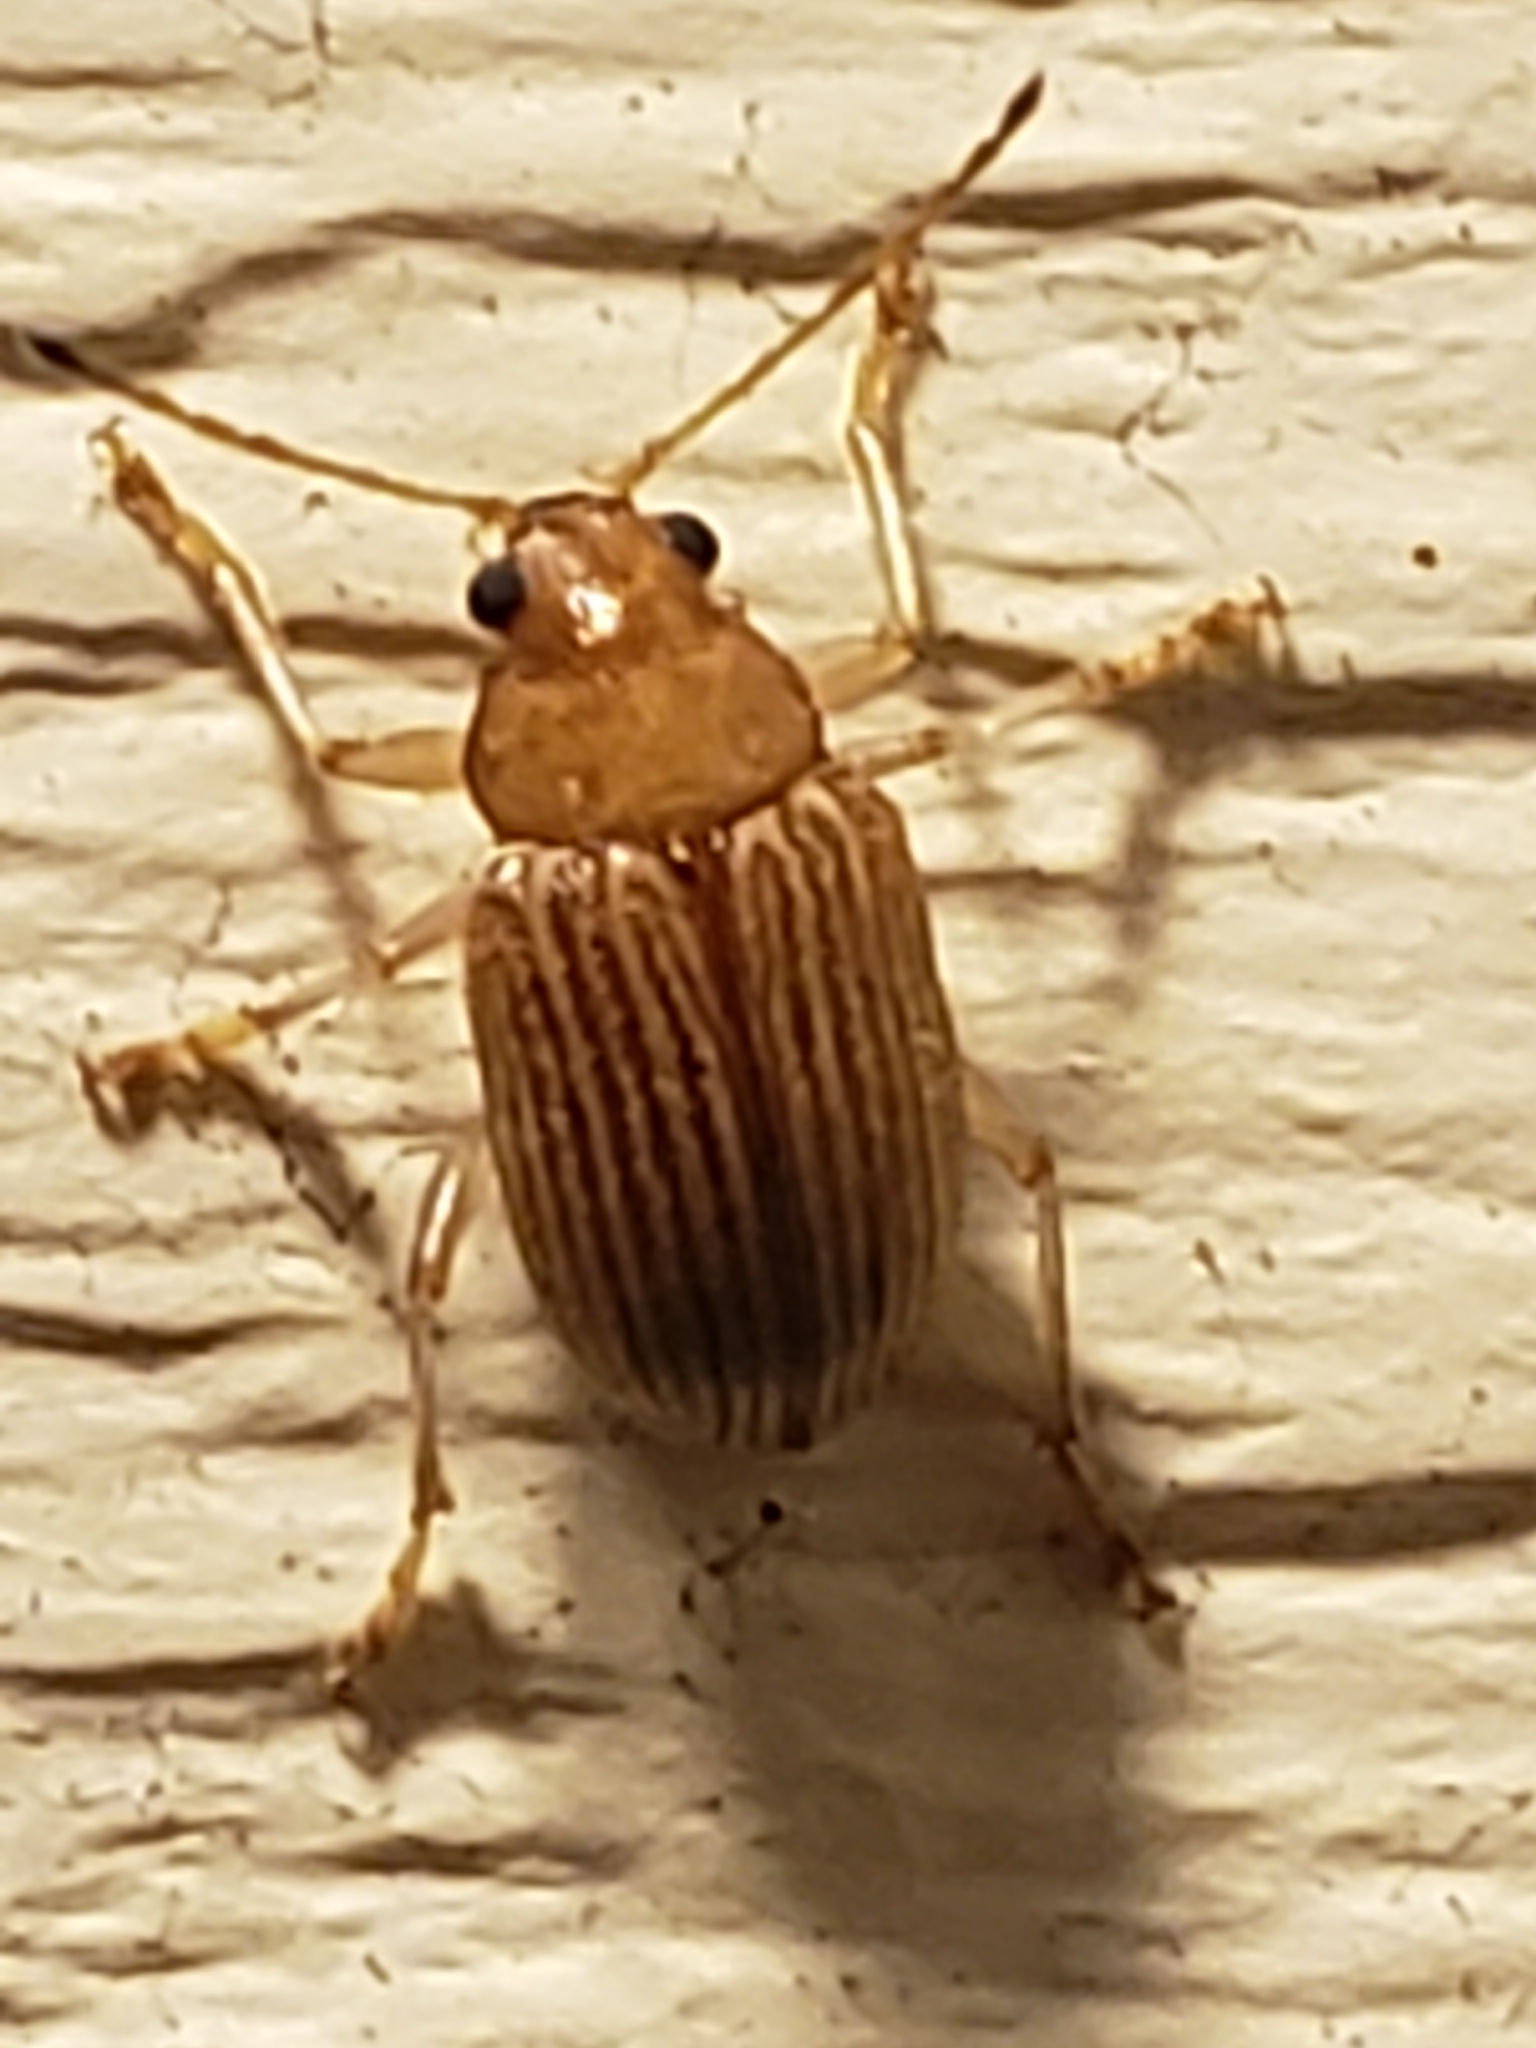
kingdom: Animalia
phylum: Arthropoda
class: Insecta
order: Coleoptera
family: Chrysomelidae
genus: Colaspis
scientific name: Colaspis brunnea
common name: Grape colaspis
